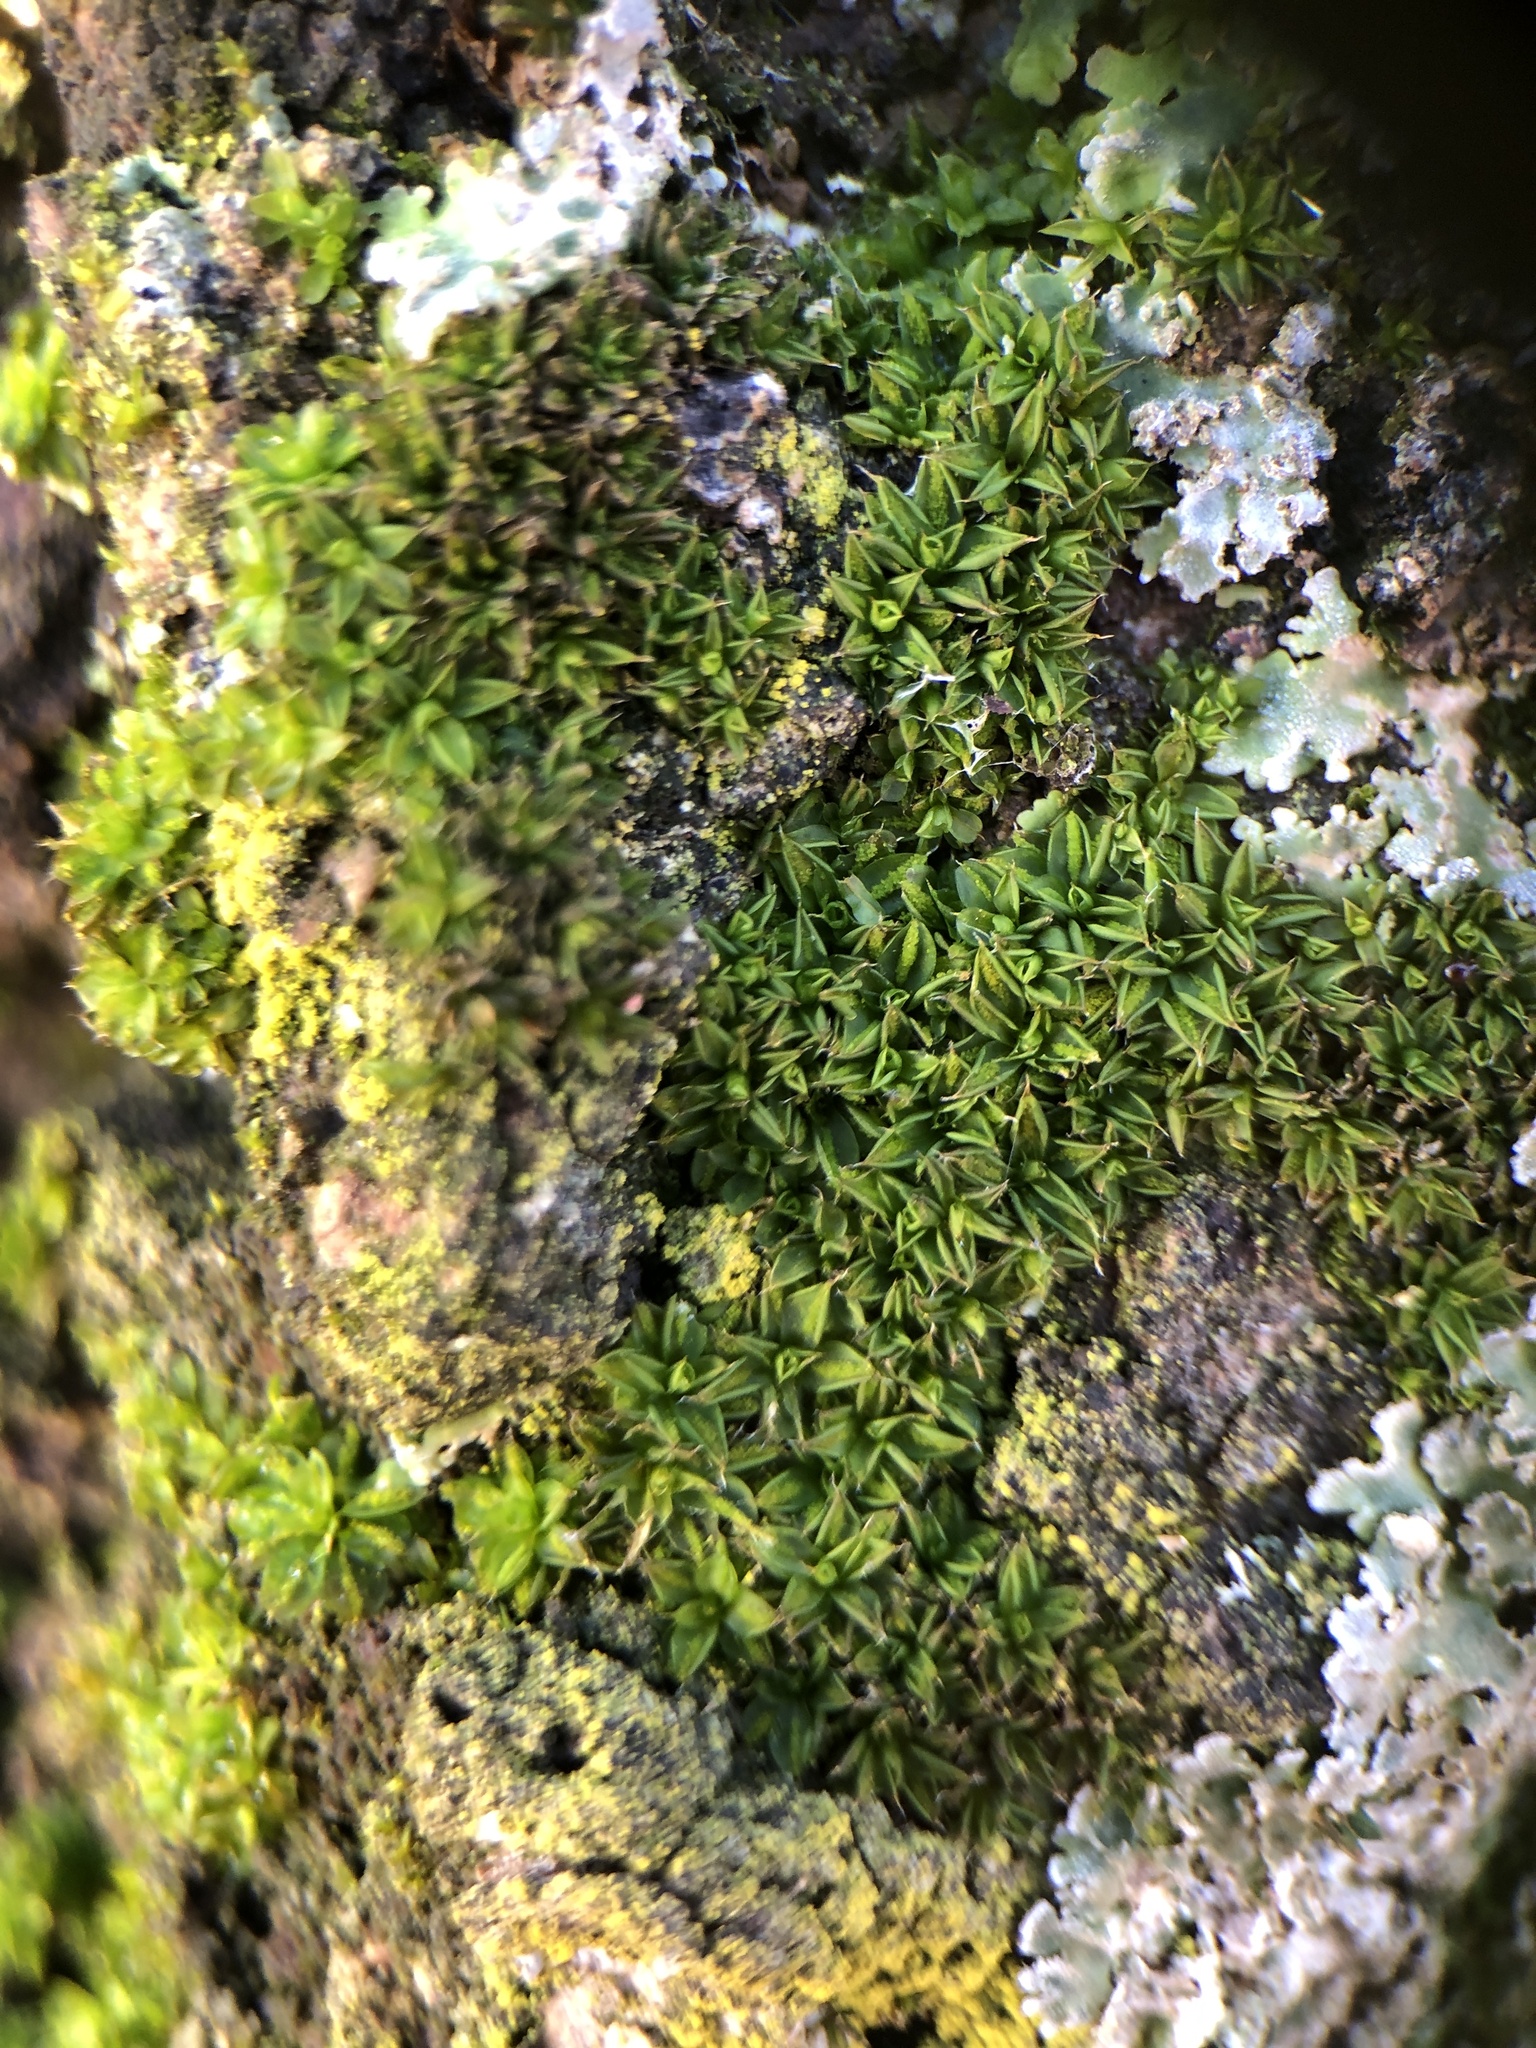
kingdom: Plantae
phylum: Bryophyta
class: Bryopsida
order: Pottiales
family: Pottiaceae
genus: Syntrichia
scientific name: Syntrichia papillosa
